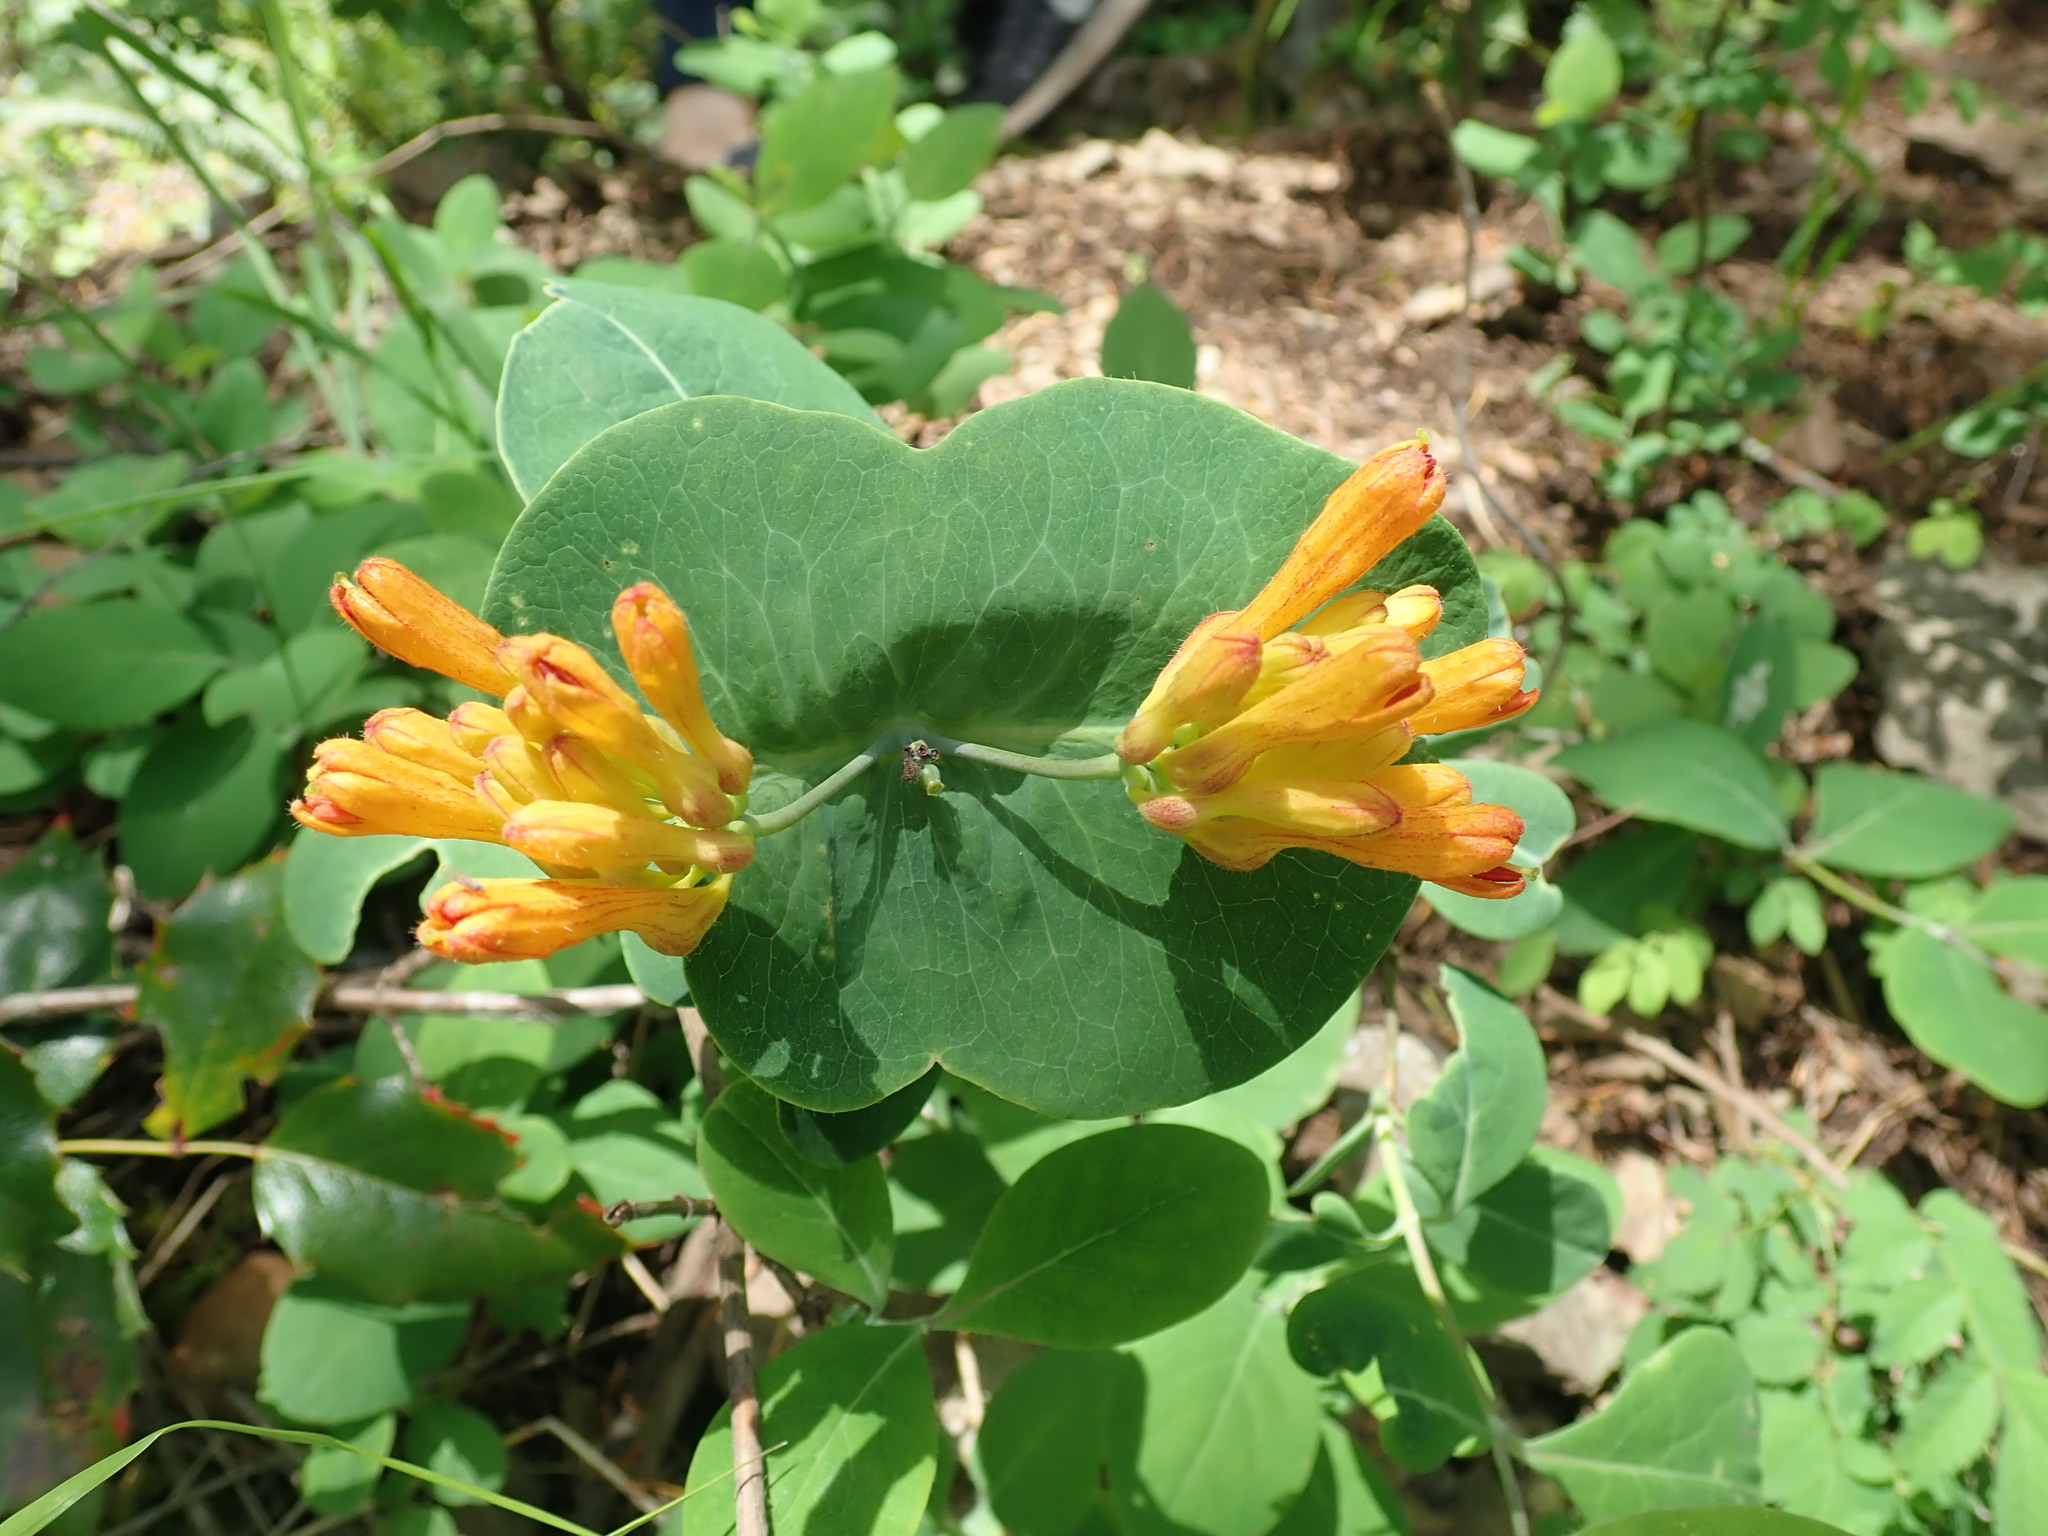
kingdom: Plantae
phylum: Tracheophyta
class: Magnoliopsida
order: Dipsacales
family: Caprifoliaceae
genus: Lonicera
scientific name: Lonicera ciliosa
